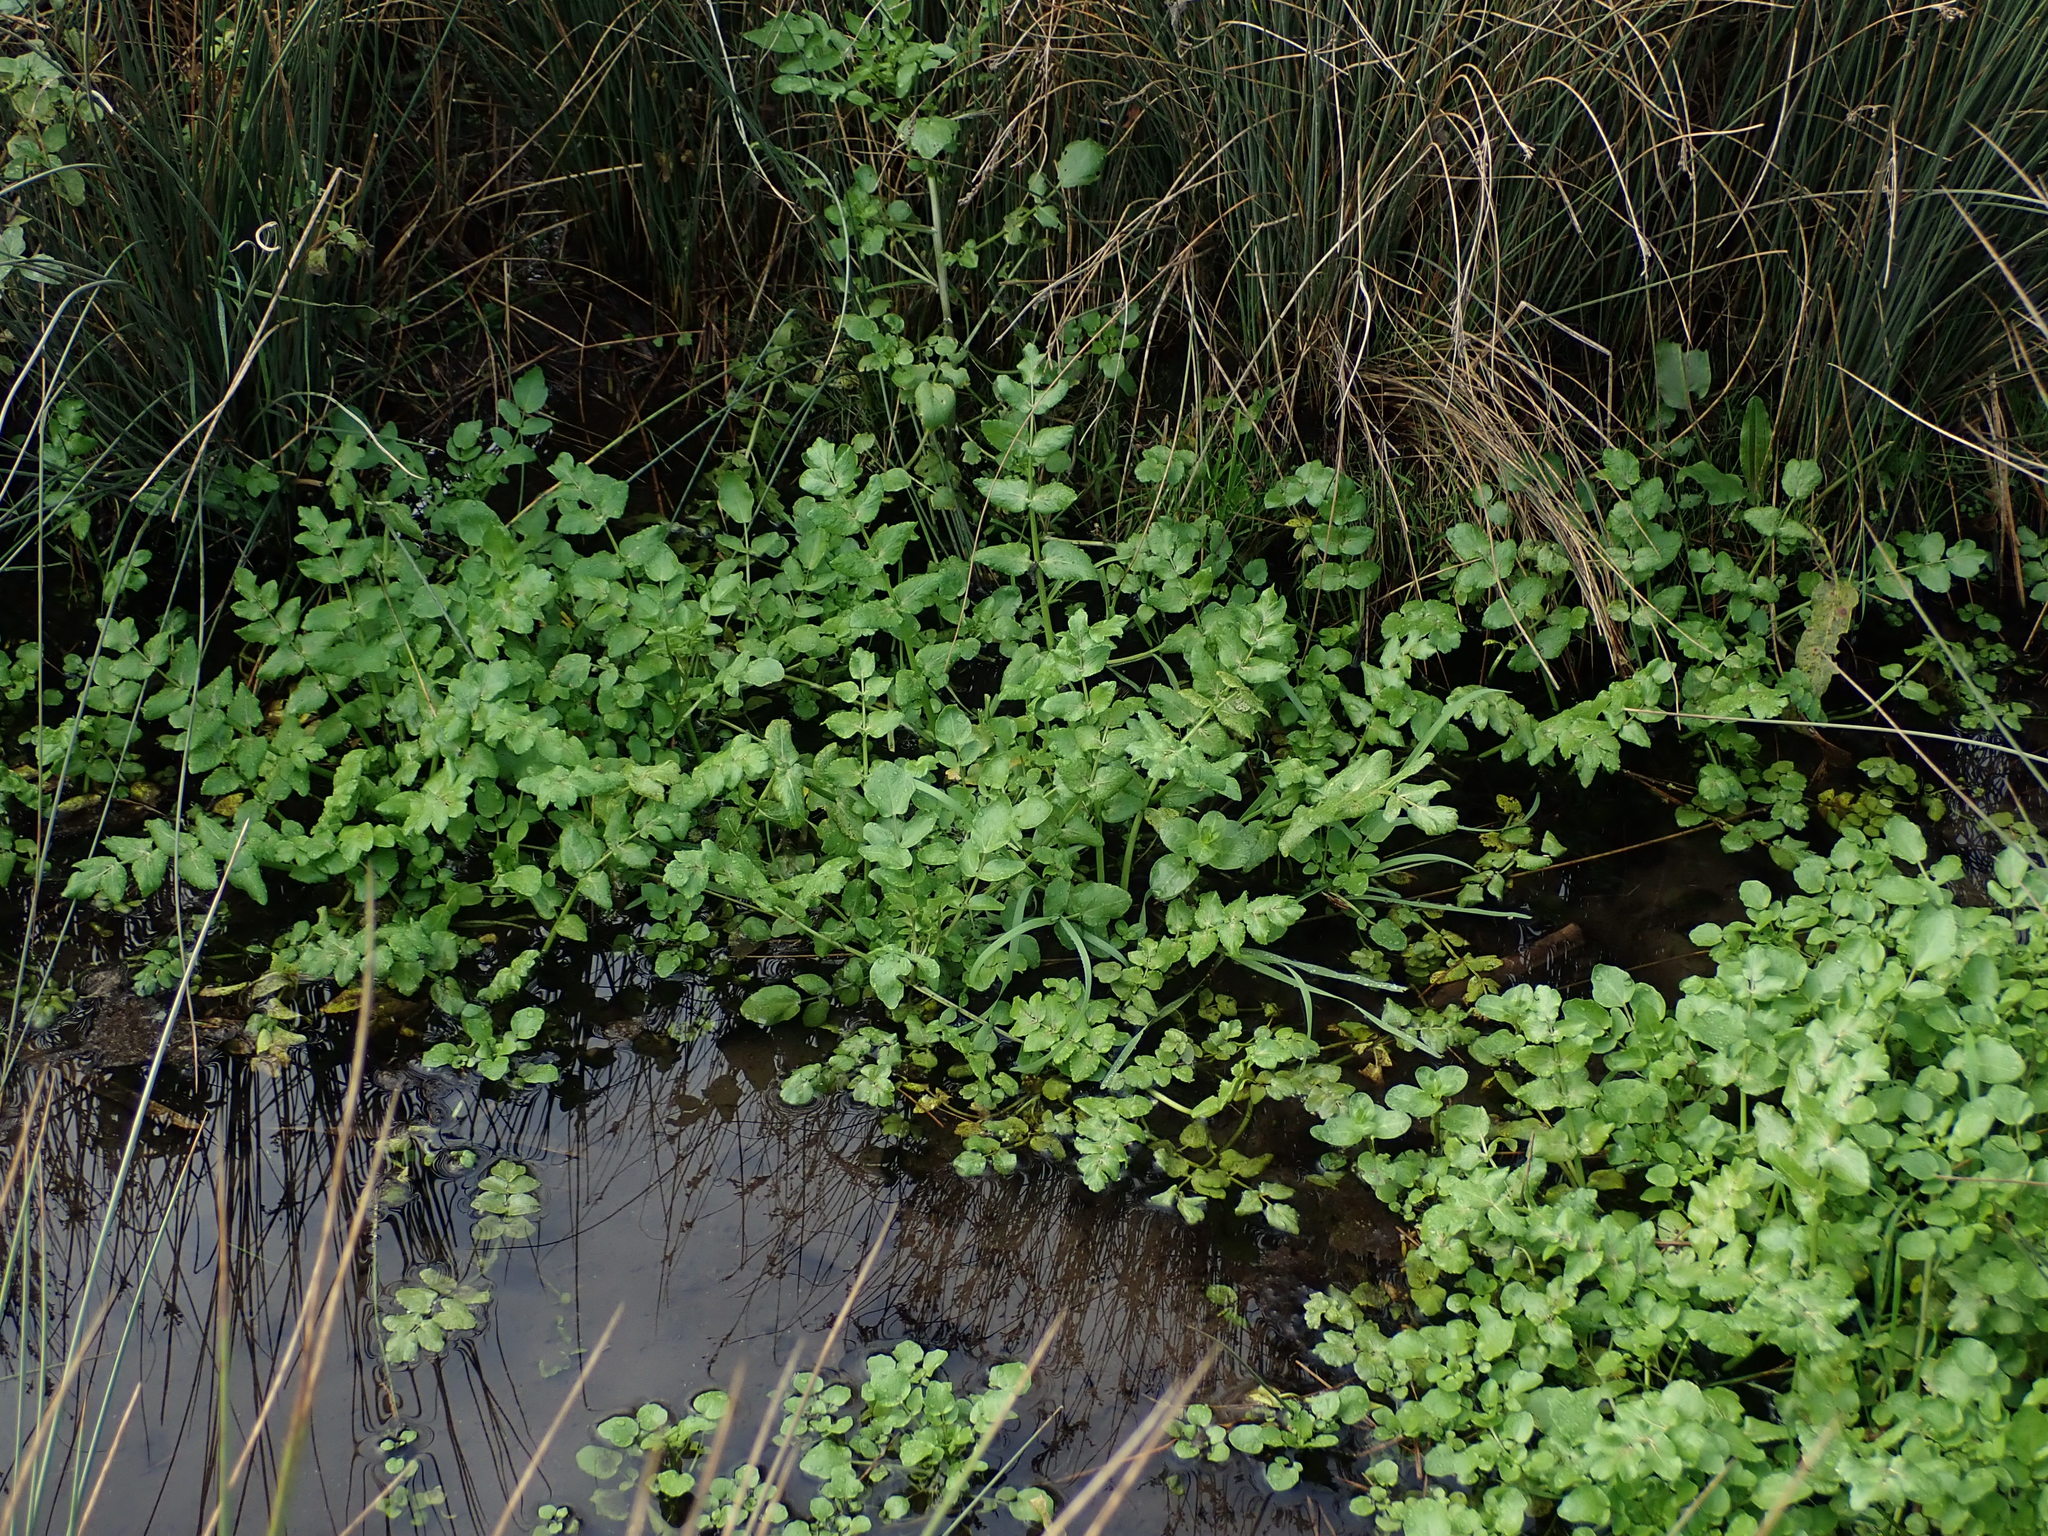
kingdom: Plantae
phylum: Tracheophyta
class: Magnoliopsida
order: Apiales
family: Apiaceae
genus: Helosciadium
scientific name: Helosciadium nodiflorum
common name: Fool's-watercress
